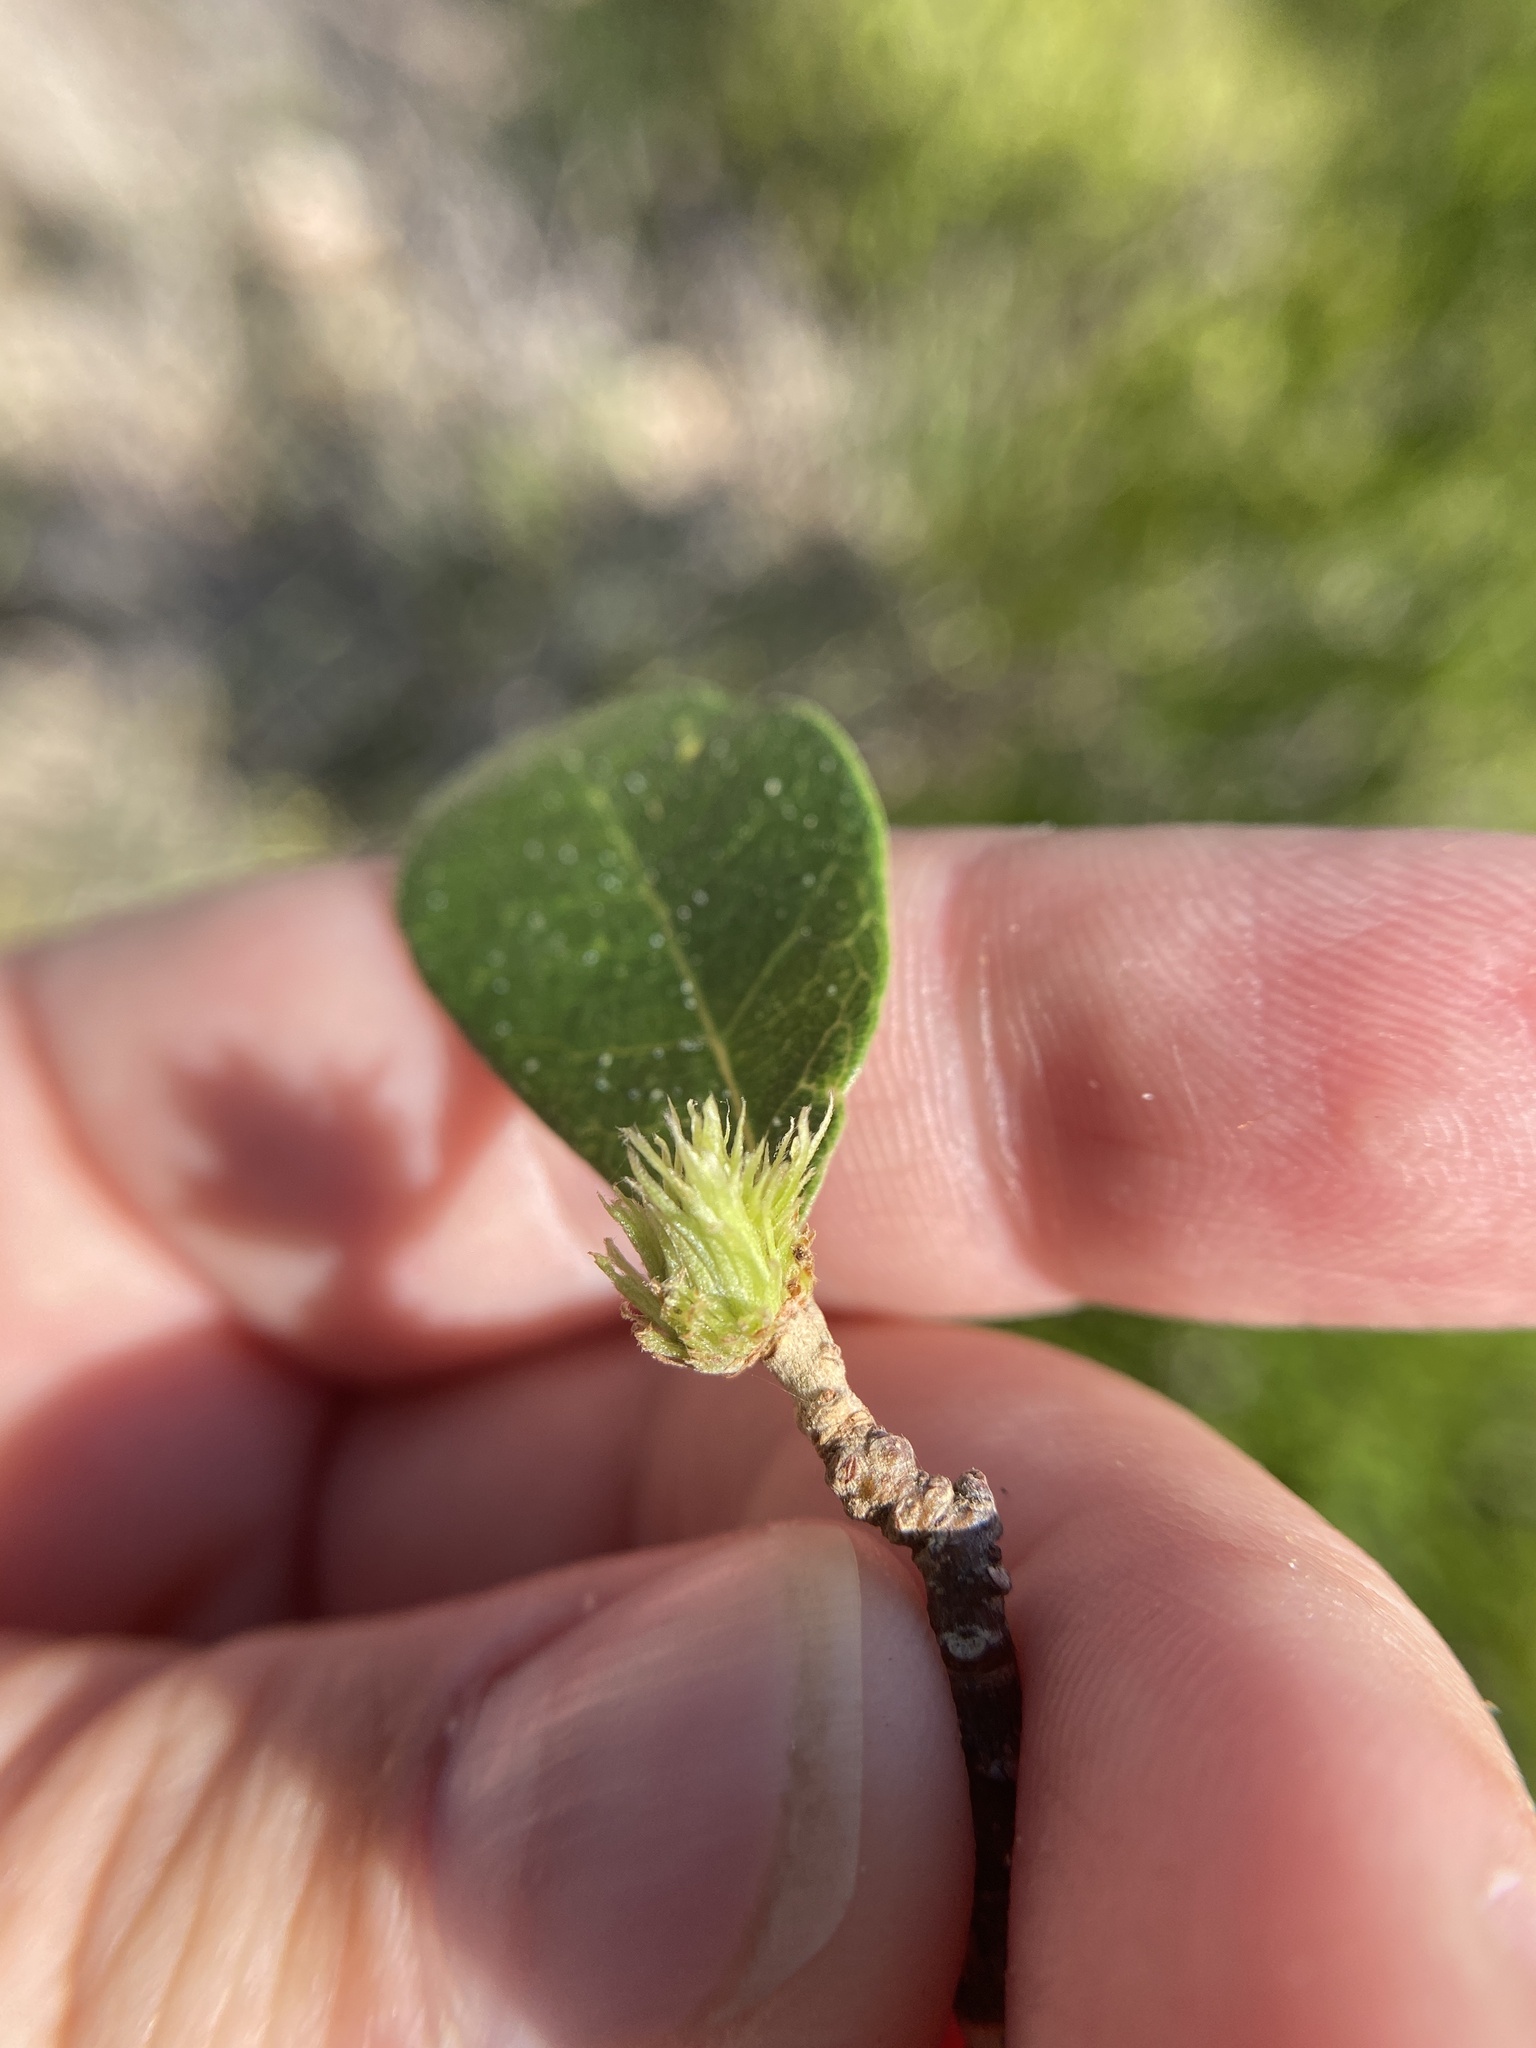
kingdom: Animalia
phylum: Arthropoda
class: Insecta
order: Hymenoptera
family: Cynipidae
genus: Andricus
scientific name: Andricus quercusfoliatus
